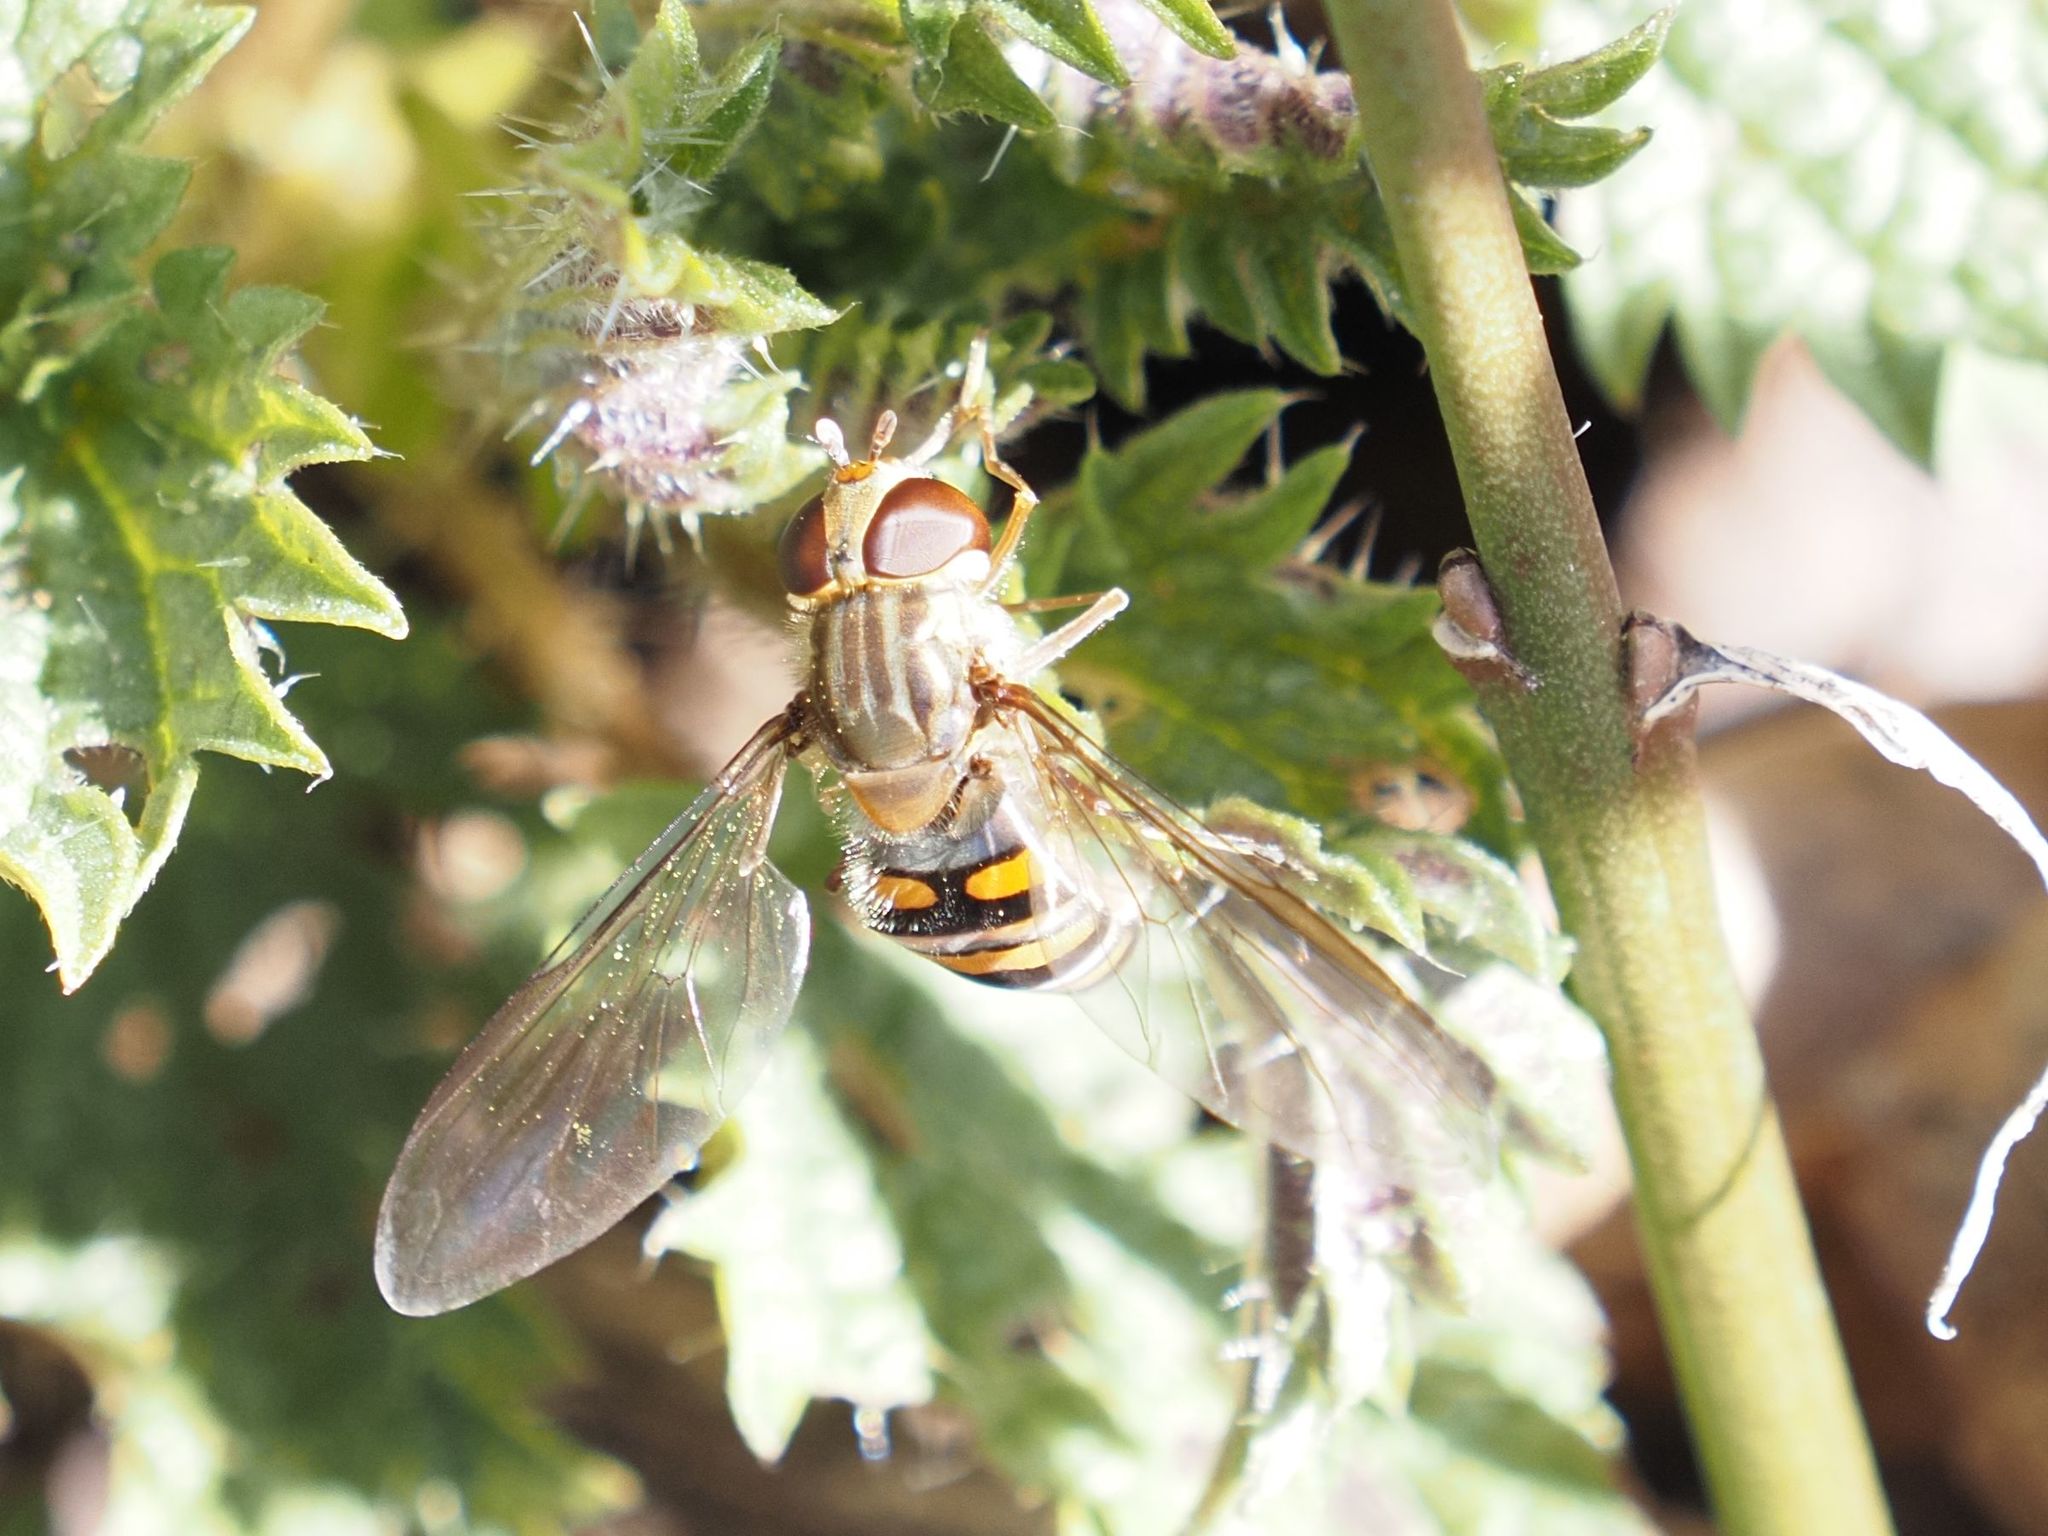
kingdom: Animalia
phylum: Arthropoda
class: Insecta
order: Diptera
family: Syrphidae
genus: Episyrphus
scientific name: Episyrphus balteatus
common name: Marmalade hoverfly
